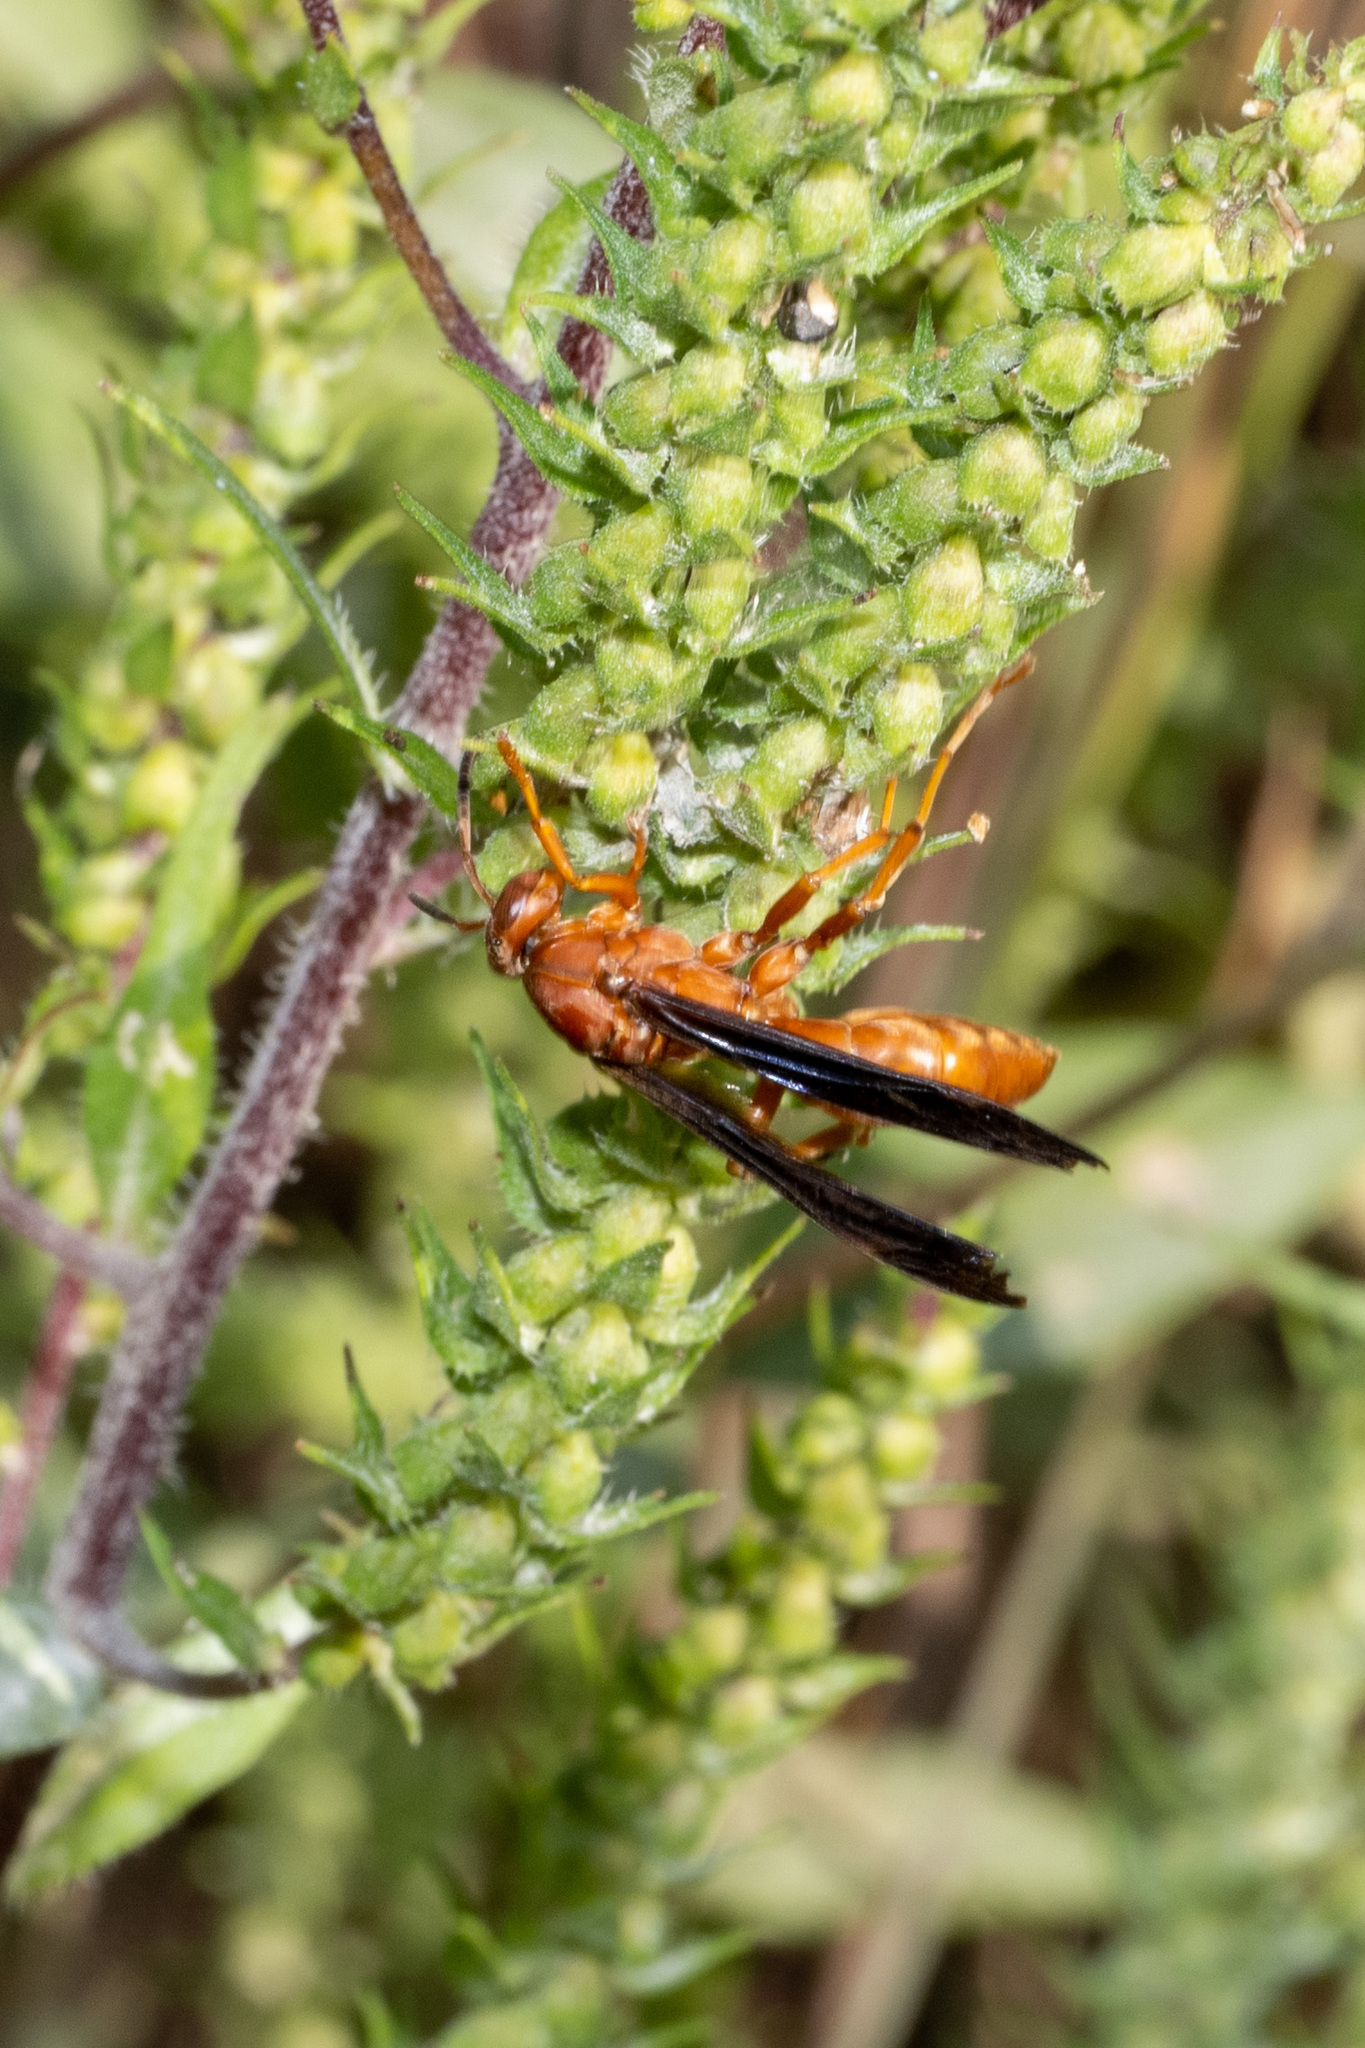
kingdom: Animalia
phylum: Arthropoda
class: Insecta
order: Hymenoptera
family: Vespidae
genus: Fuscopolistes
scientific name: Fuscopolistes
